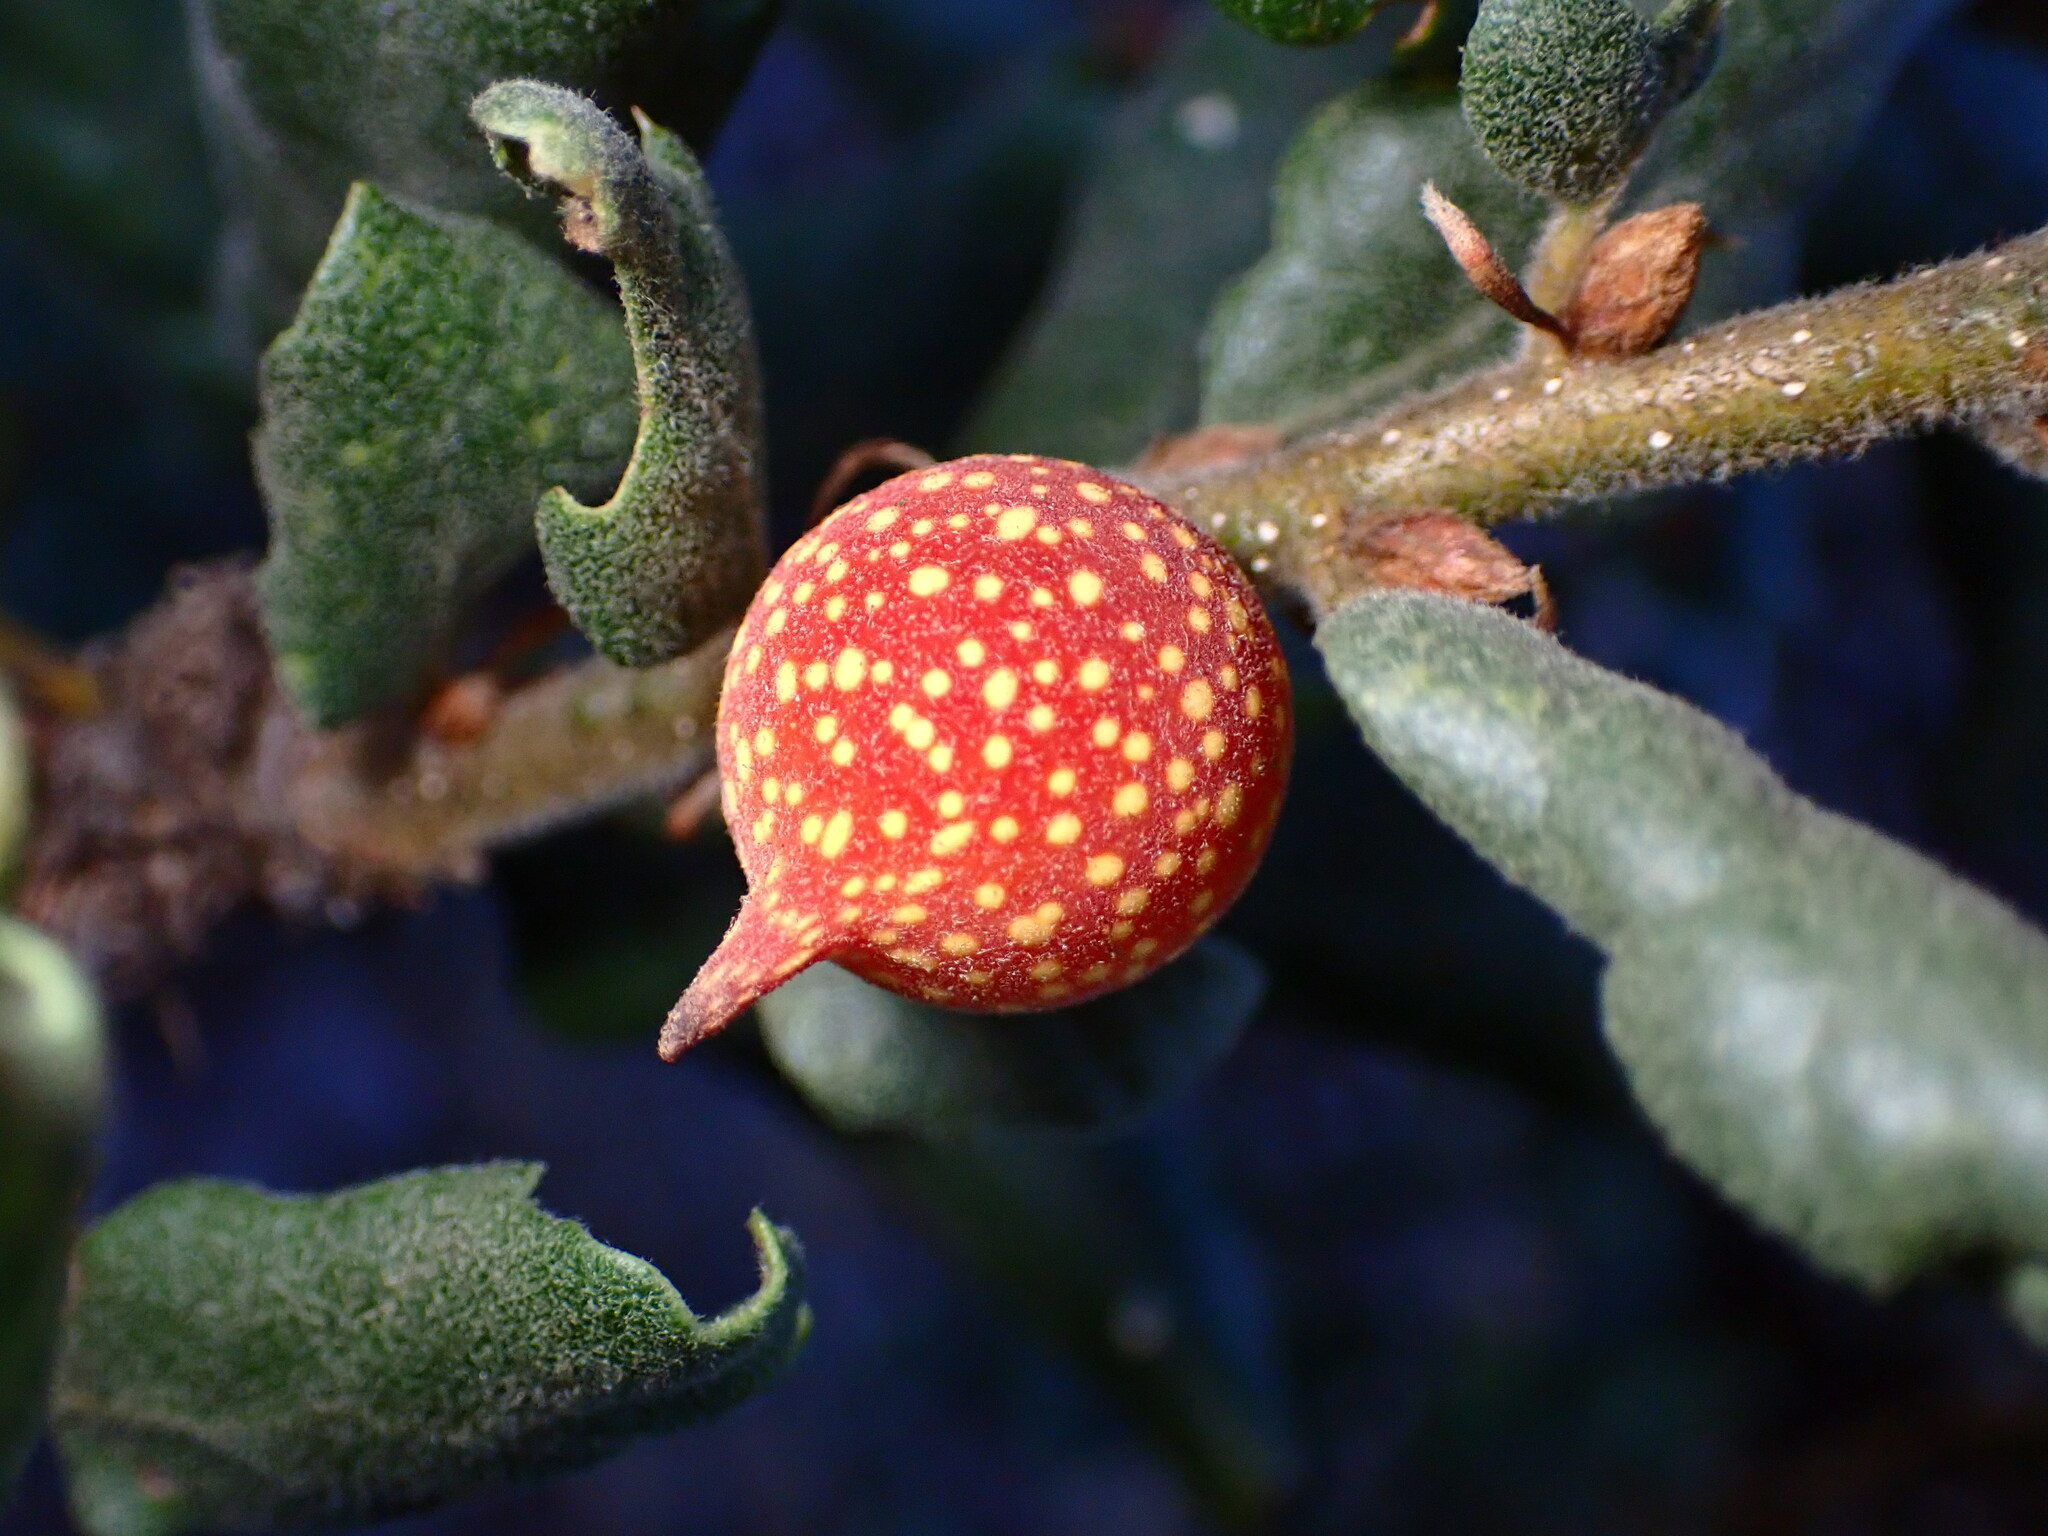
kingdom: Animalia
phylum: Arthropoda
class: Insecta
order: Hymenoptera
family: Cynipidae
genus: Burnettweldia
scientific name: Burnettweldia
